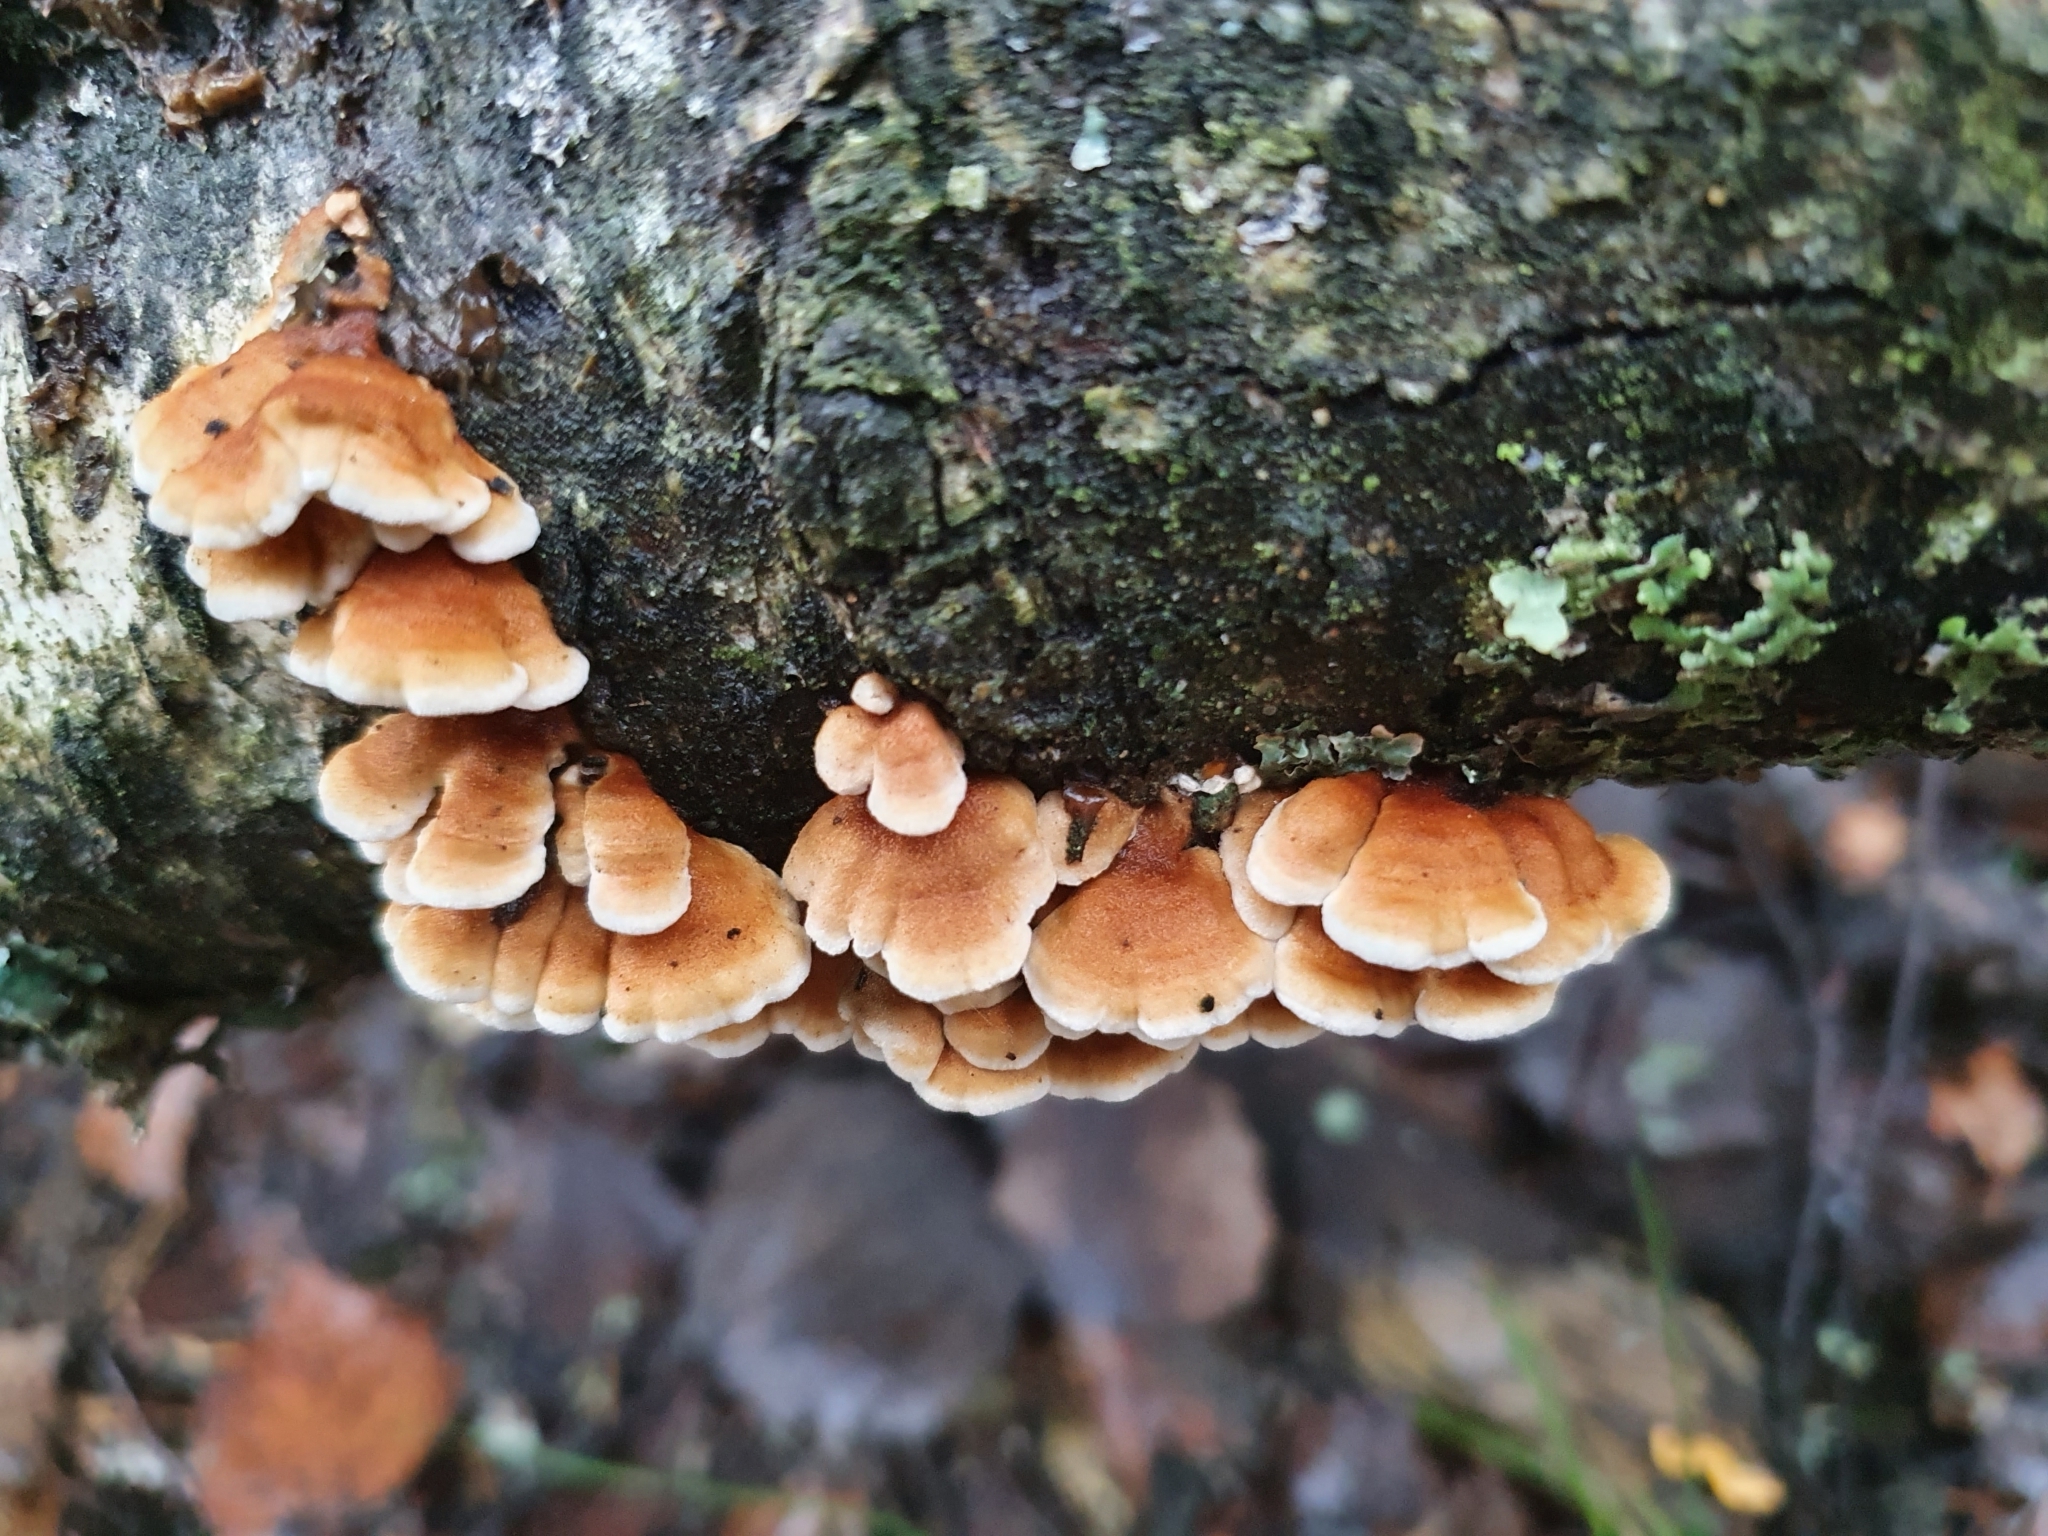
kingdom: Fungi
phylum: Basidiomycota
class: Agaricomycetes
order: Amylocorticiales
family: Amylocorticiaceae
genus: Plicaturopsis
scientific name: Plicaturopsis crispa
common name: Crimped gill
